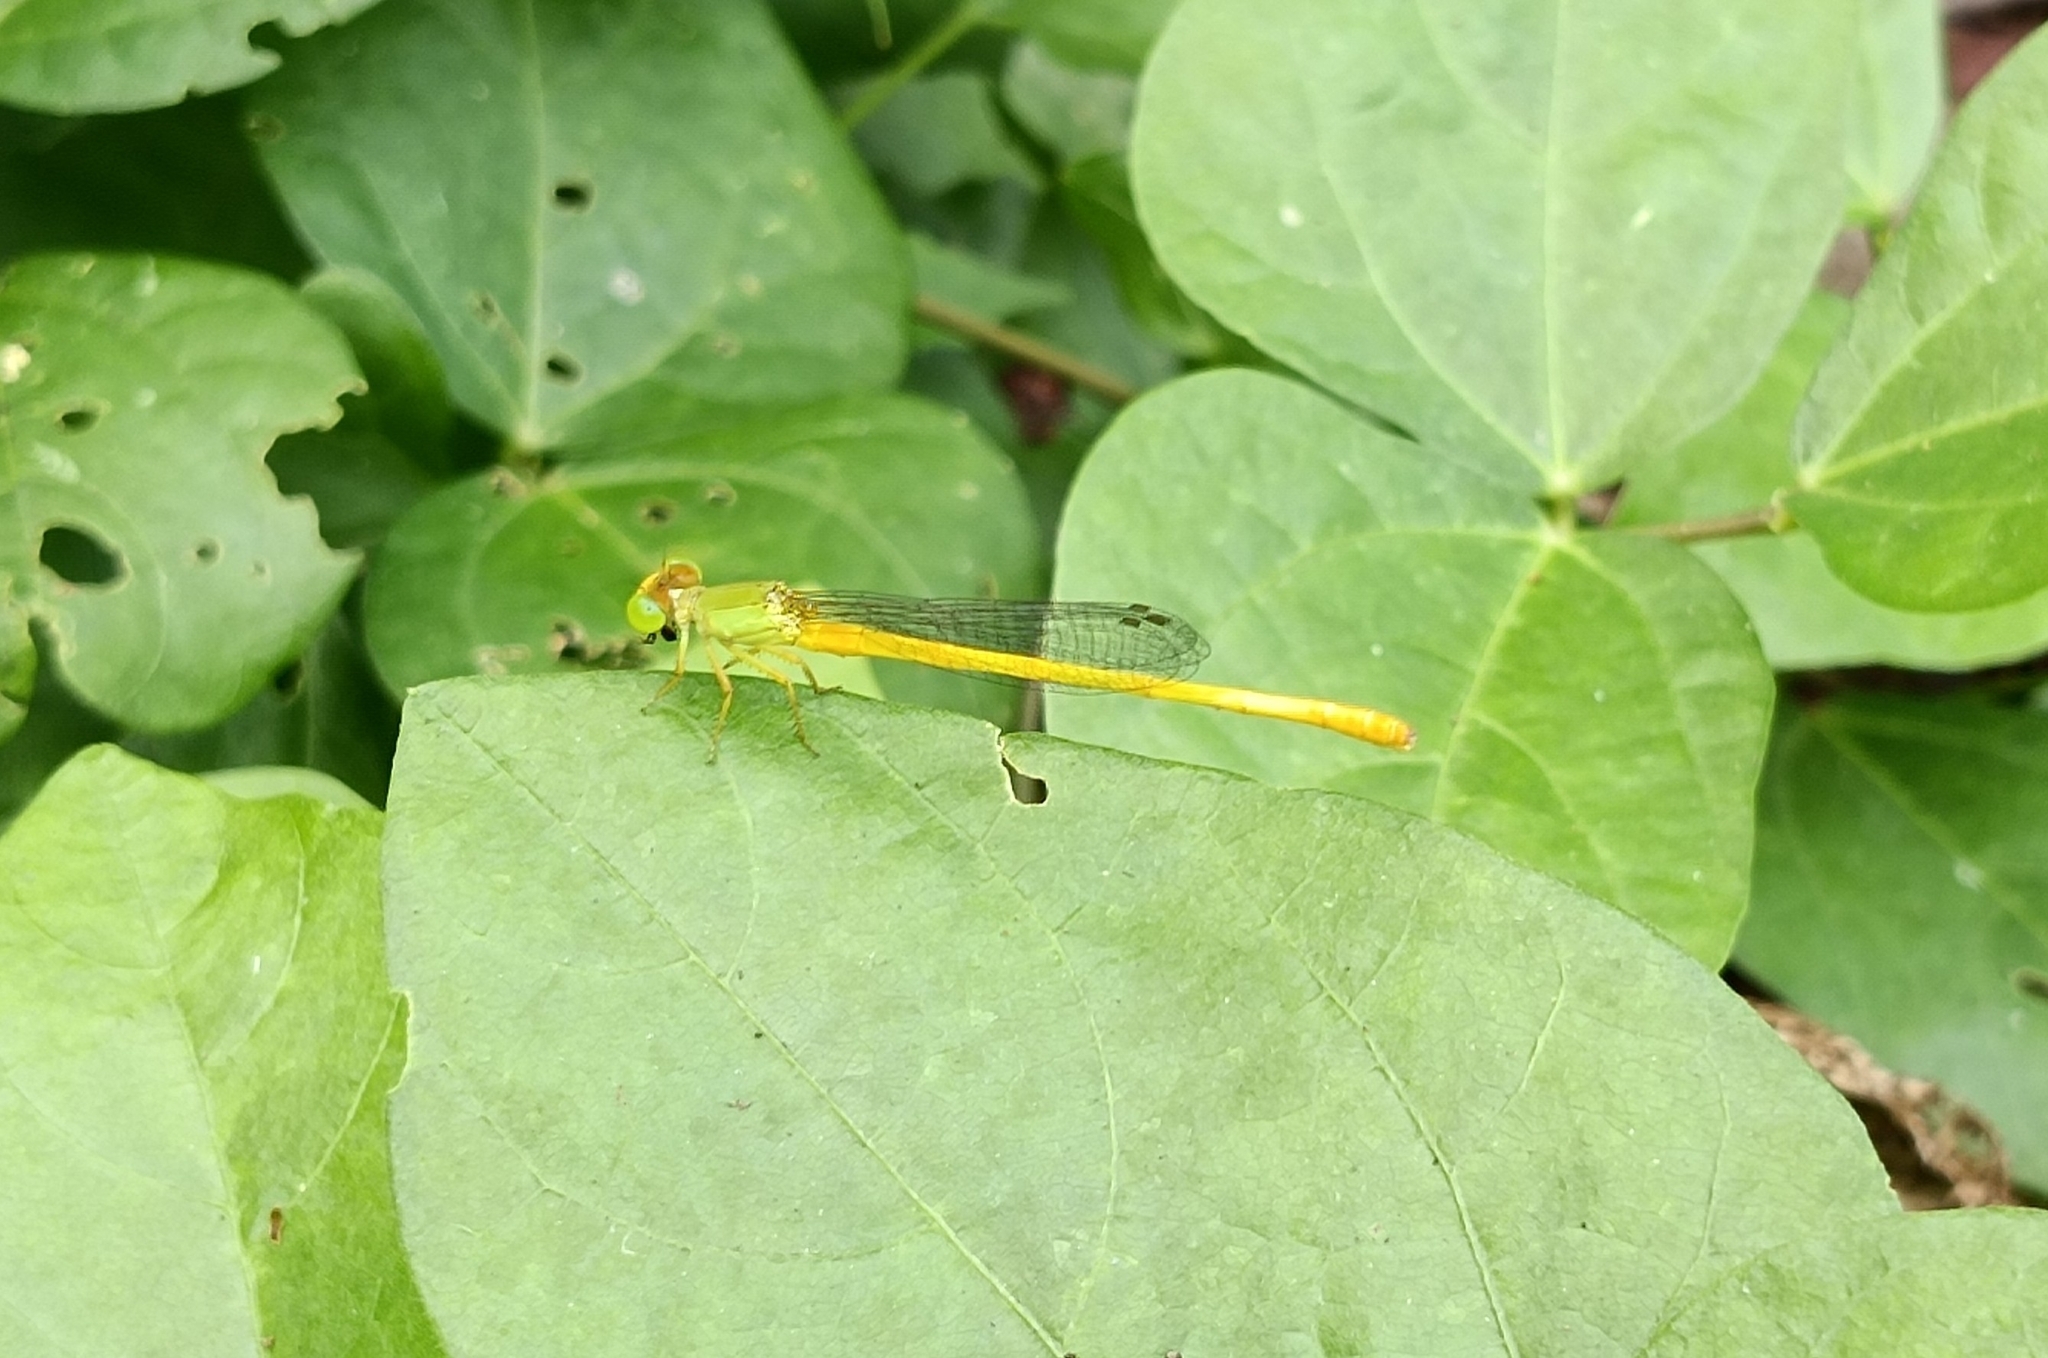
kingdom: Animalia
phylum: Arthropoda
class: Insecta
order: Odonata
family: Coenagrionidae
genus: Ceriagrion
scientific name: Ceriagrion coromandelianum
